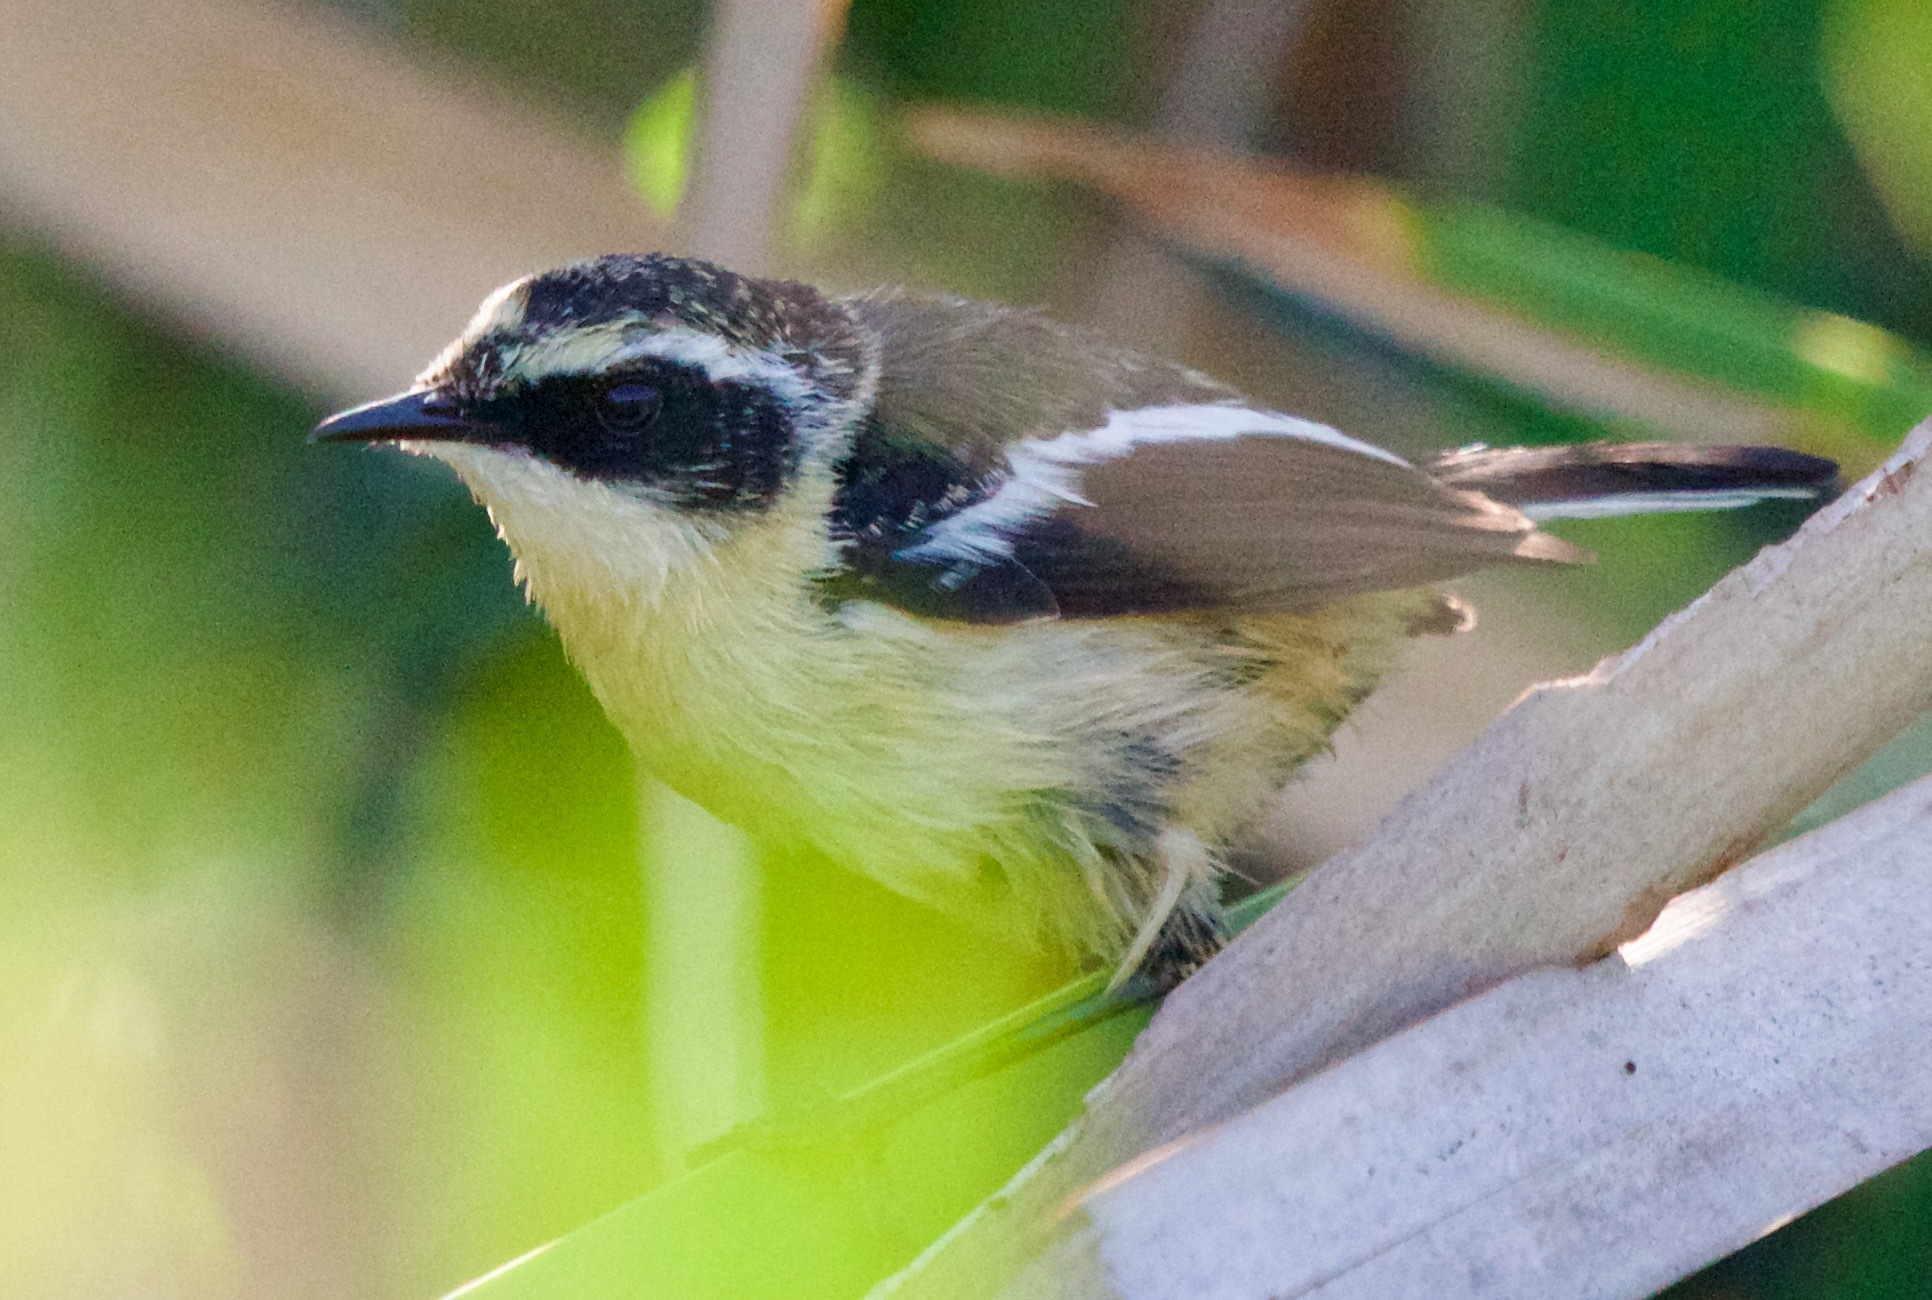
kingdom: Animalia
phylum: Chordata
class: Aves
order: Passeriformes
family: Tyrannidae
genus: Tachuris
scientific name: Tachuris rubrigastra
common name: Many-colored rush tyrant
